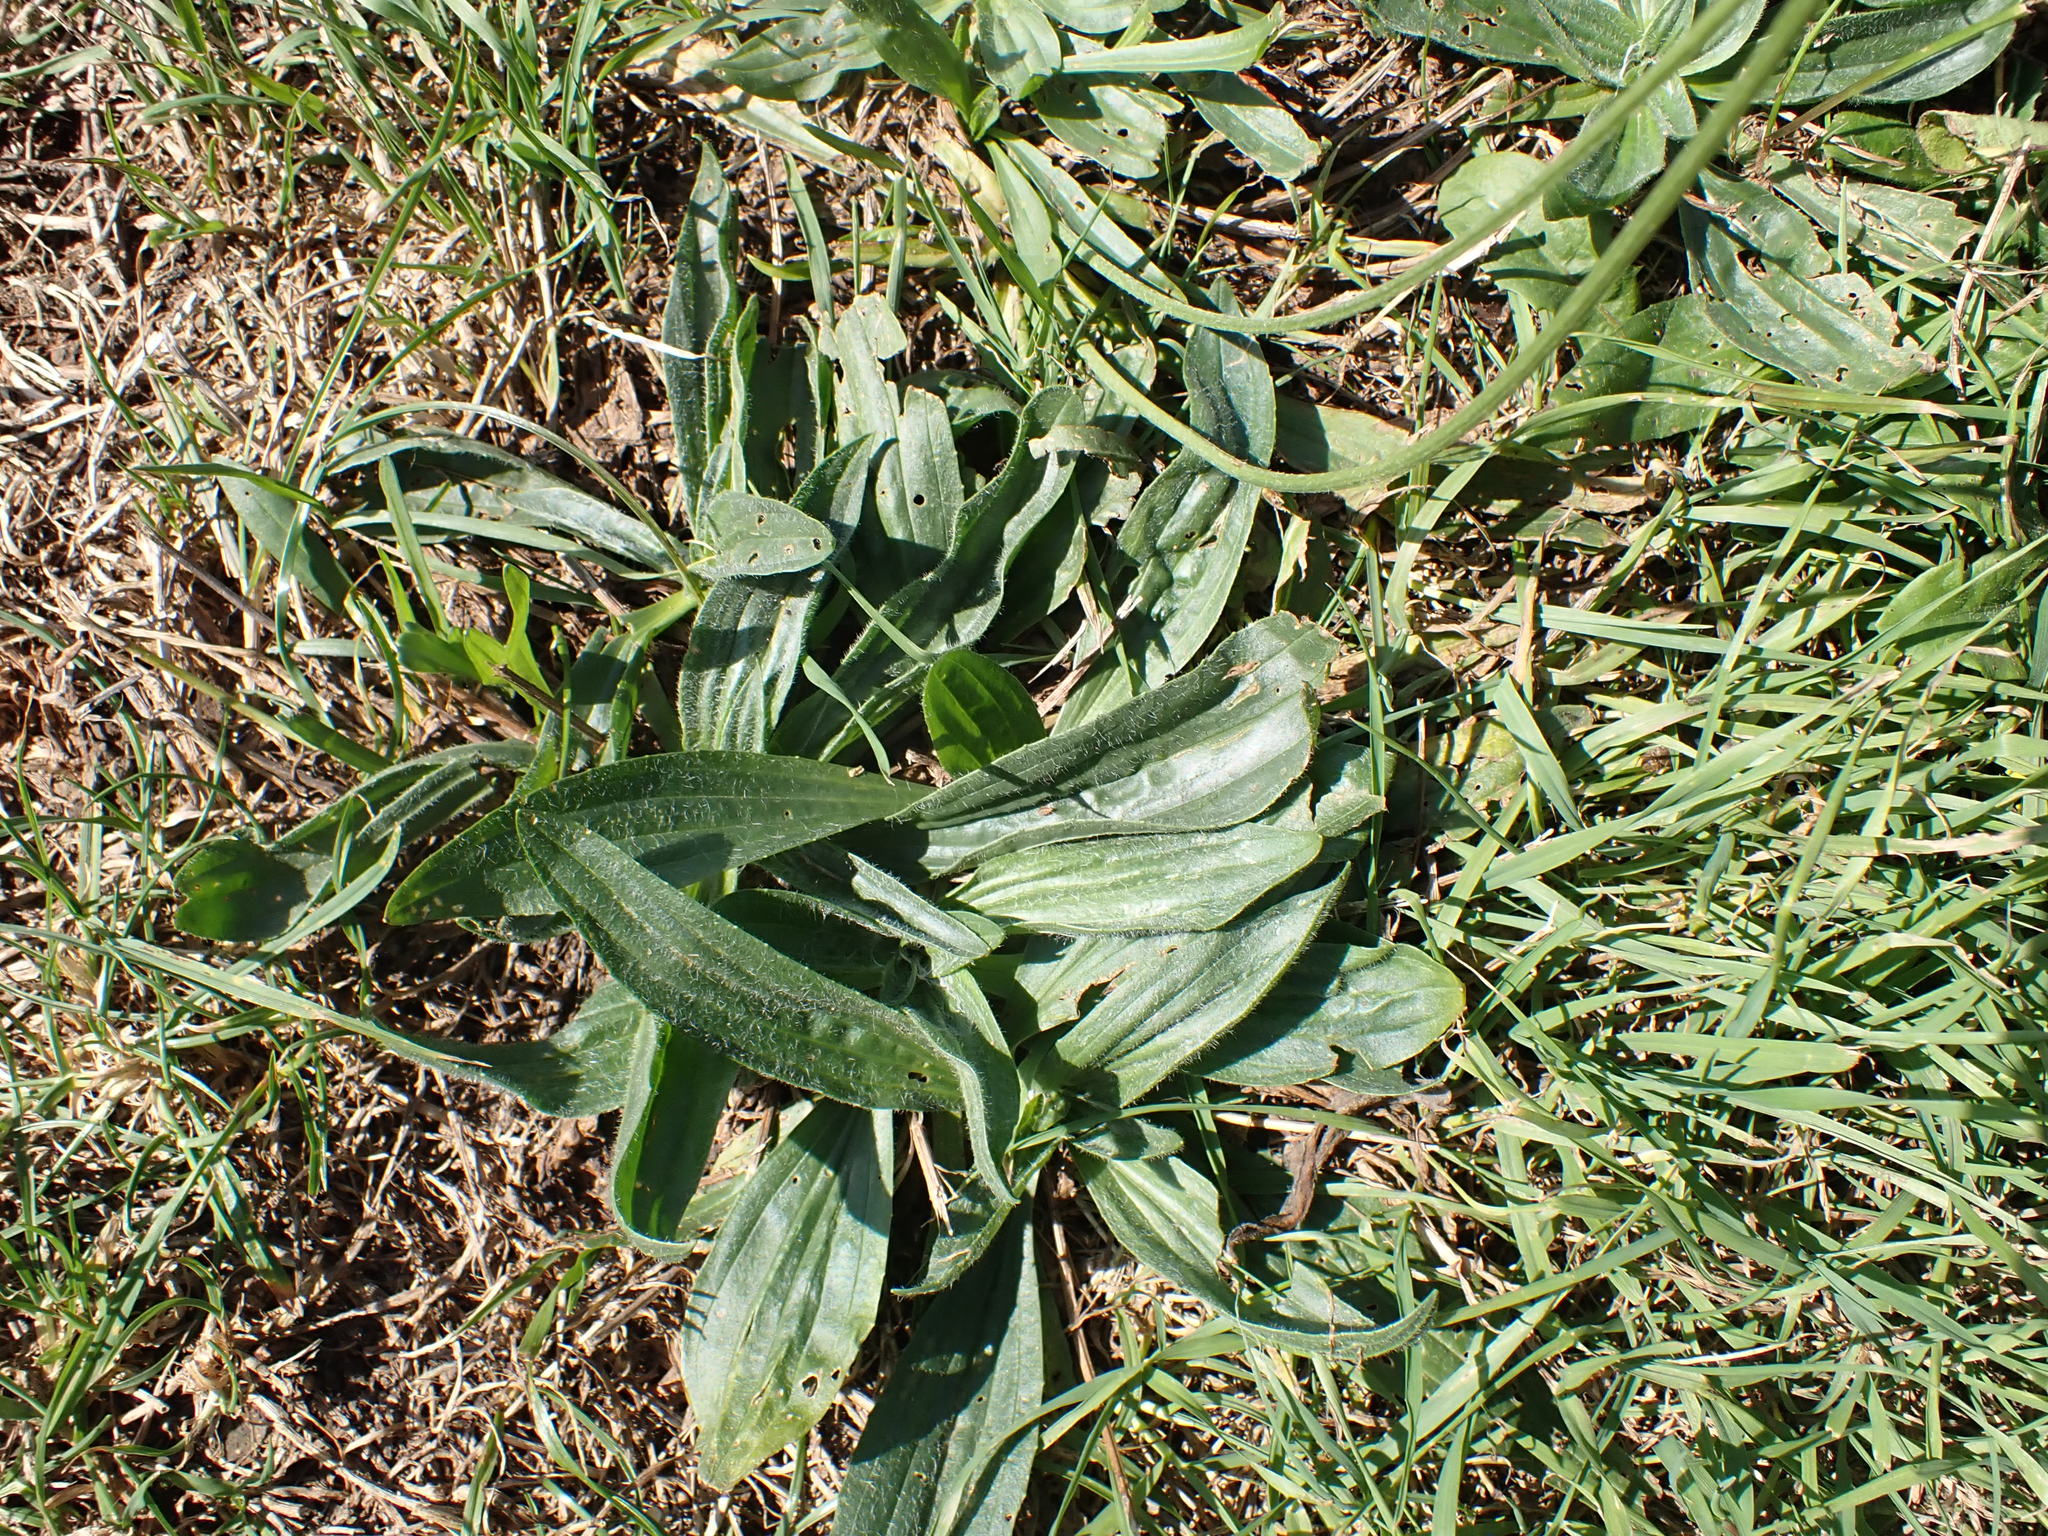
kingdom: Plantae
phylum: Tracheophyta
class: Magnoliopsida
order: Lamiales
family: Plantaginaceae
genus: Plantago
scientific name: Plantago lanceolata
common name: Ribwort plantain
